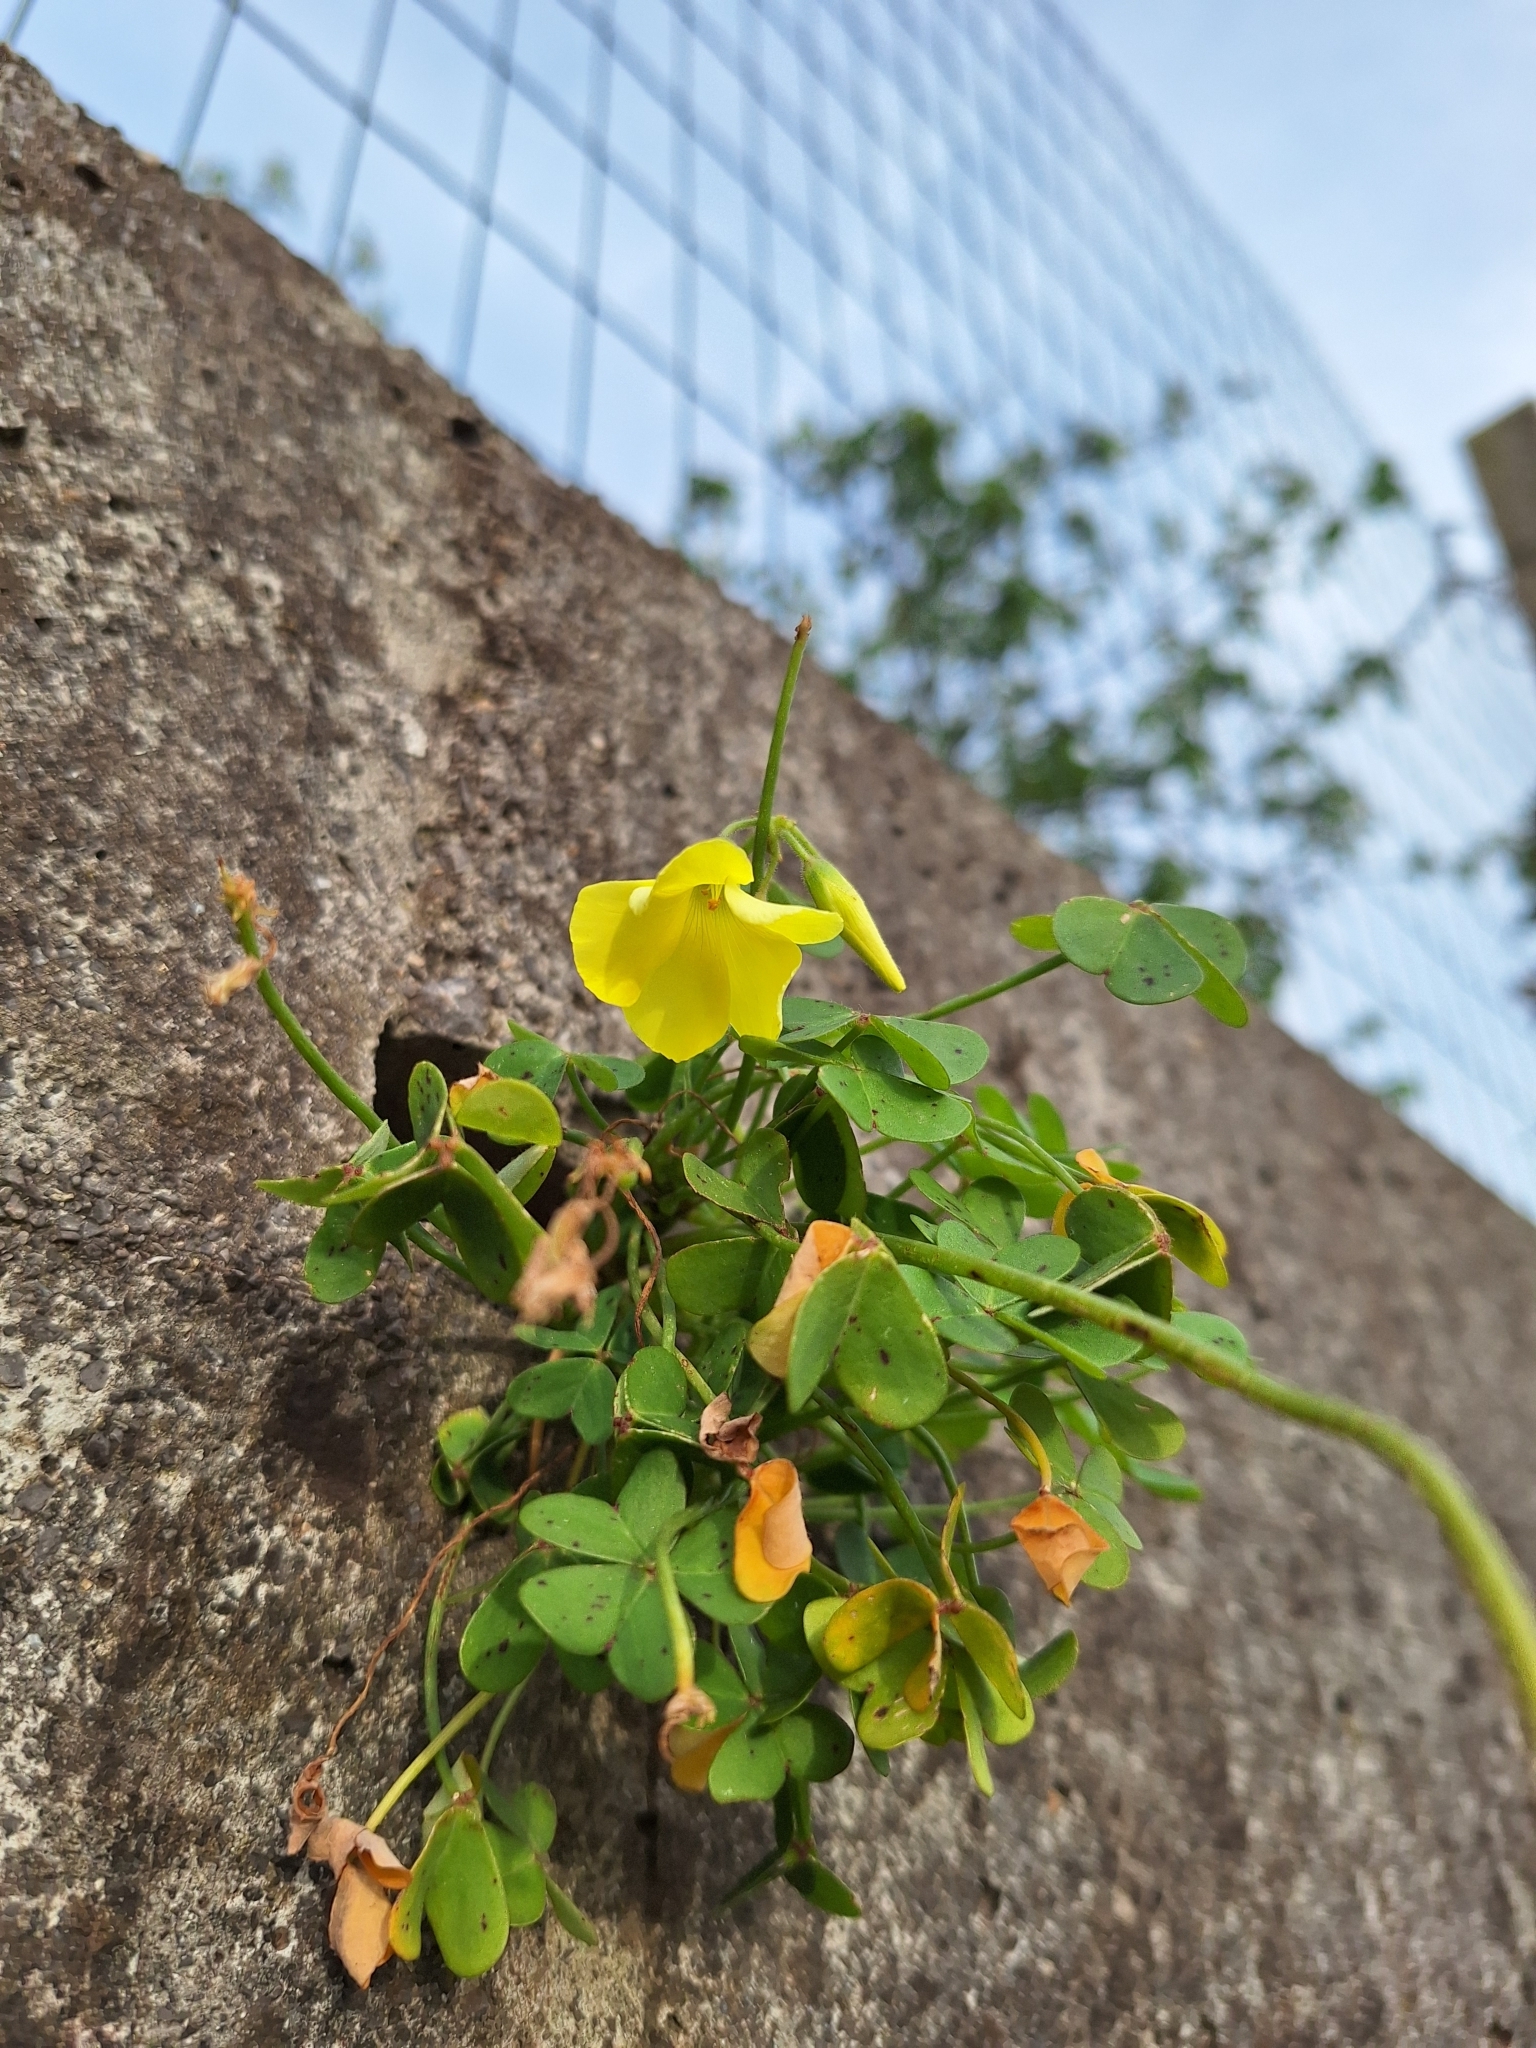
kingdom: Plantae
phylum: Tracheophyta
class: Magnoliopsida
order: Oxalidales
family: Oxalidaceae
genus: Oxalis
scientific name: Oxalis pes-caprae
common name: Bermuda-buttercup
